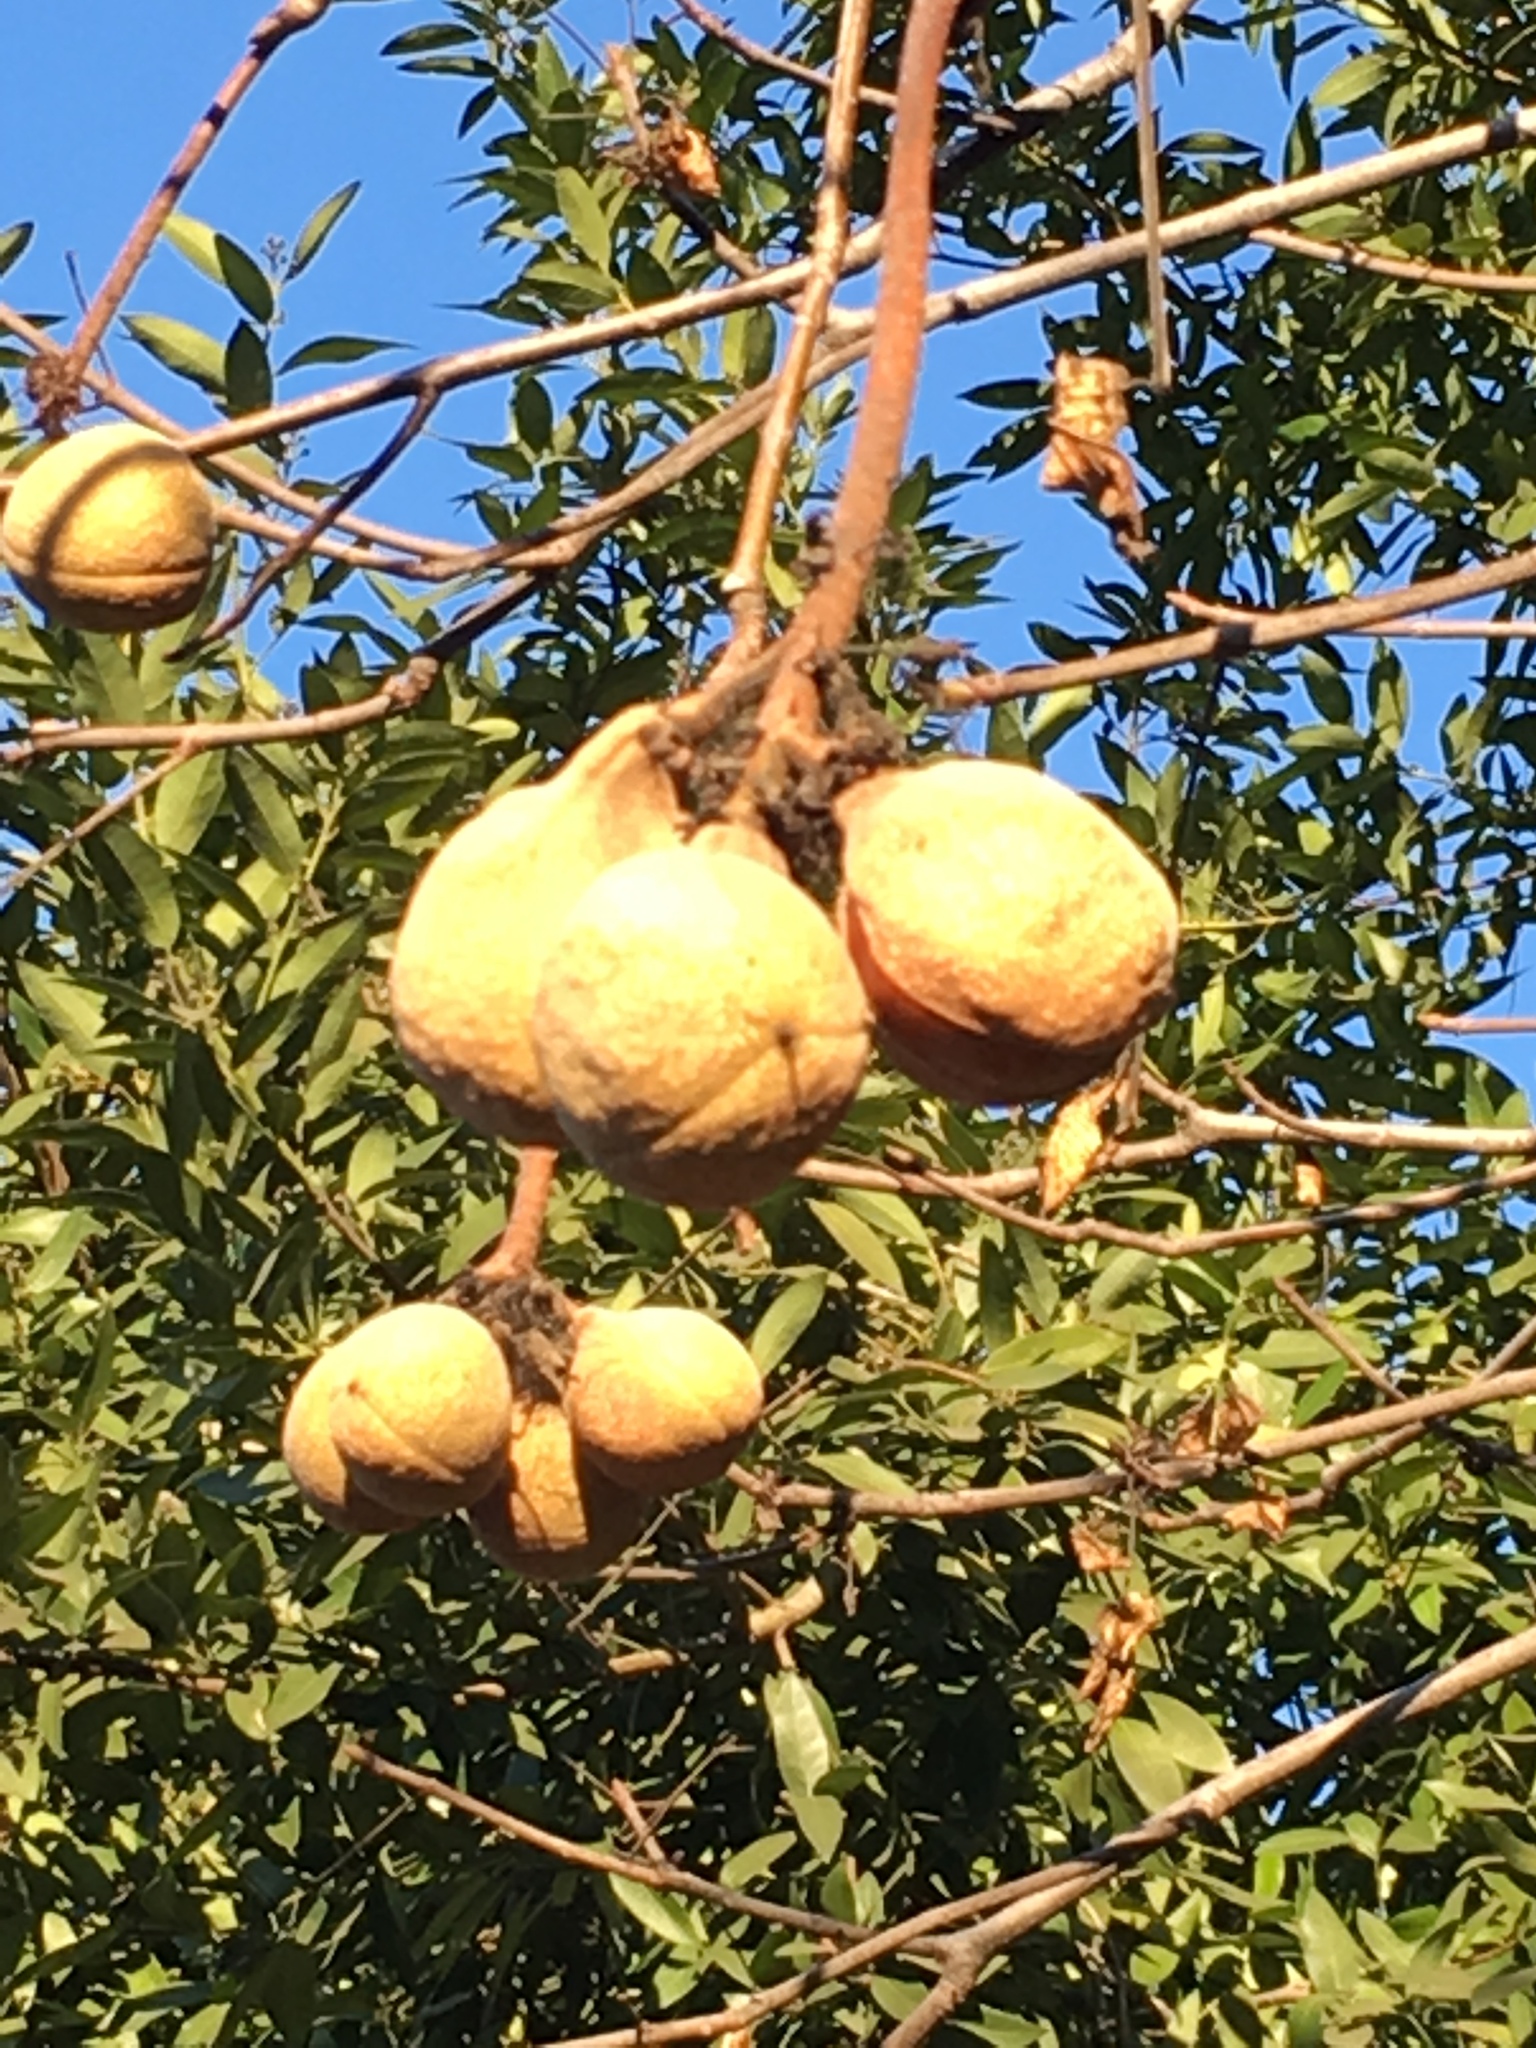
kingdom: Plantae
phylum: Tracheophyta
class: Magnoliopsida
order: Sapindales
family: Sapindaceae
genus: Aesculus
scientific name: Aesculus californica
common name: California buckeye
